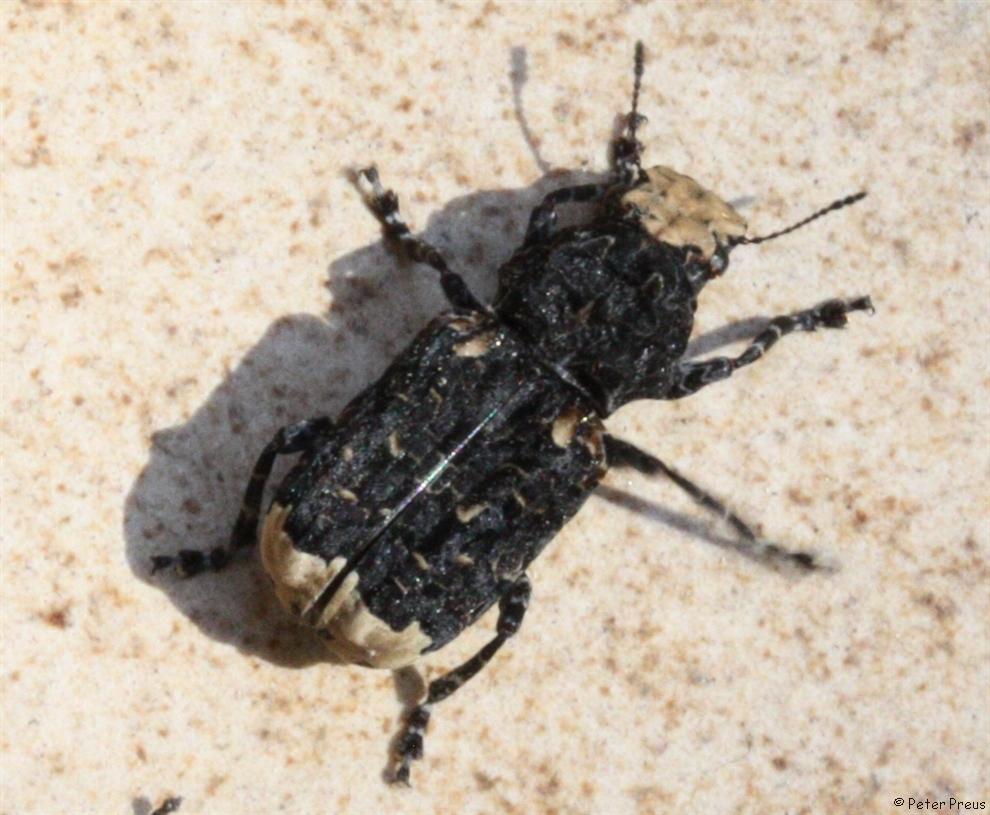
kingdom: Animalia
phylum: Arthropoda
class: Insecta
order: Coleoptera
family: Anthribidae
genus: Platyrhinus
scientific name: Platyrhinus resinosus
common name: Cramp-ball fungus weevil
